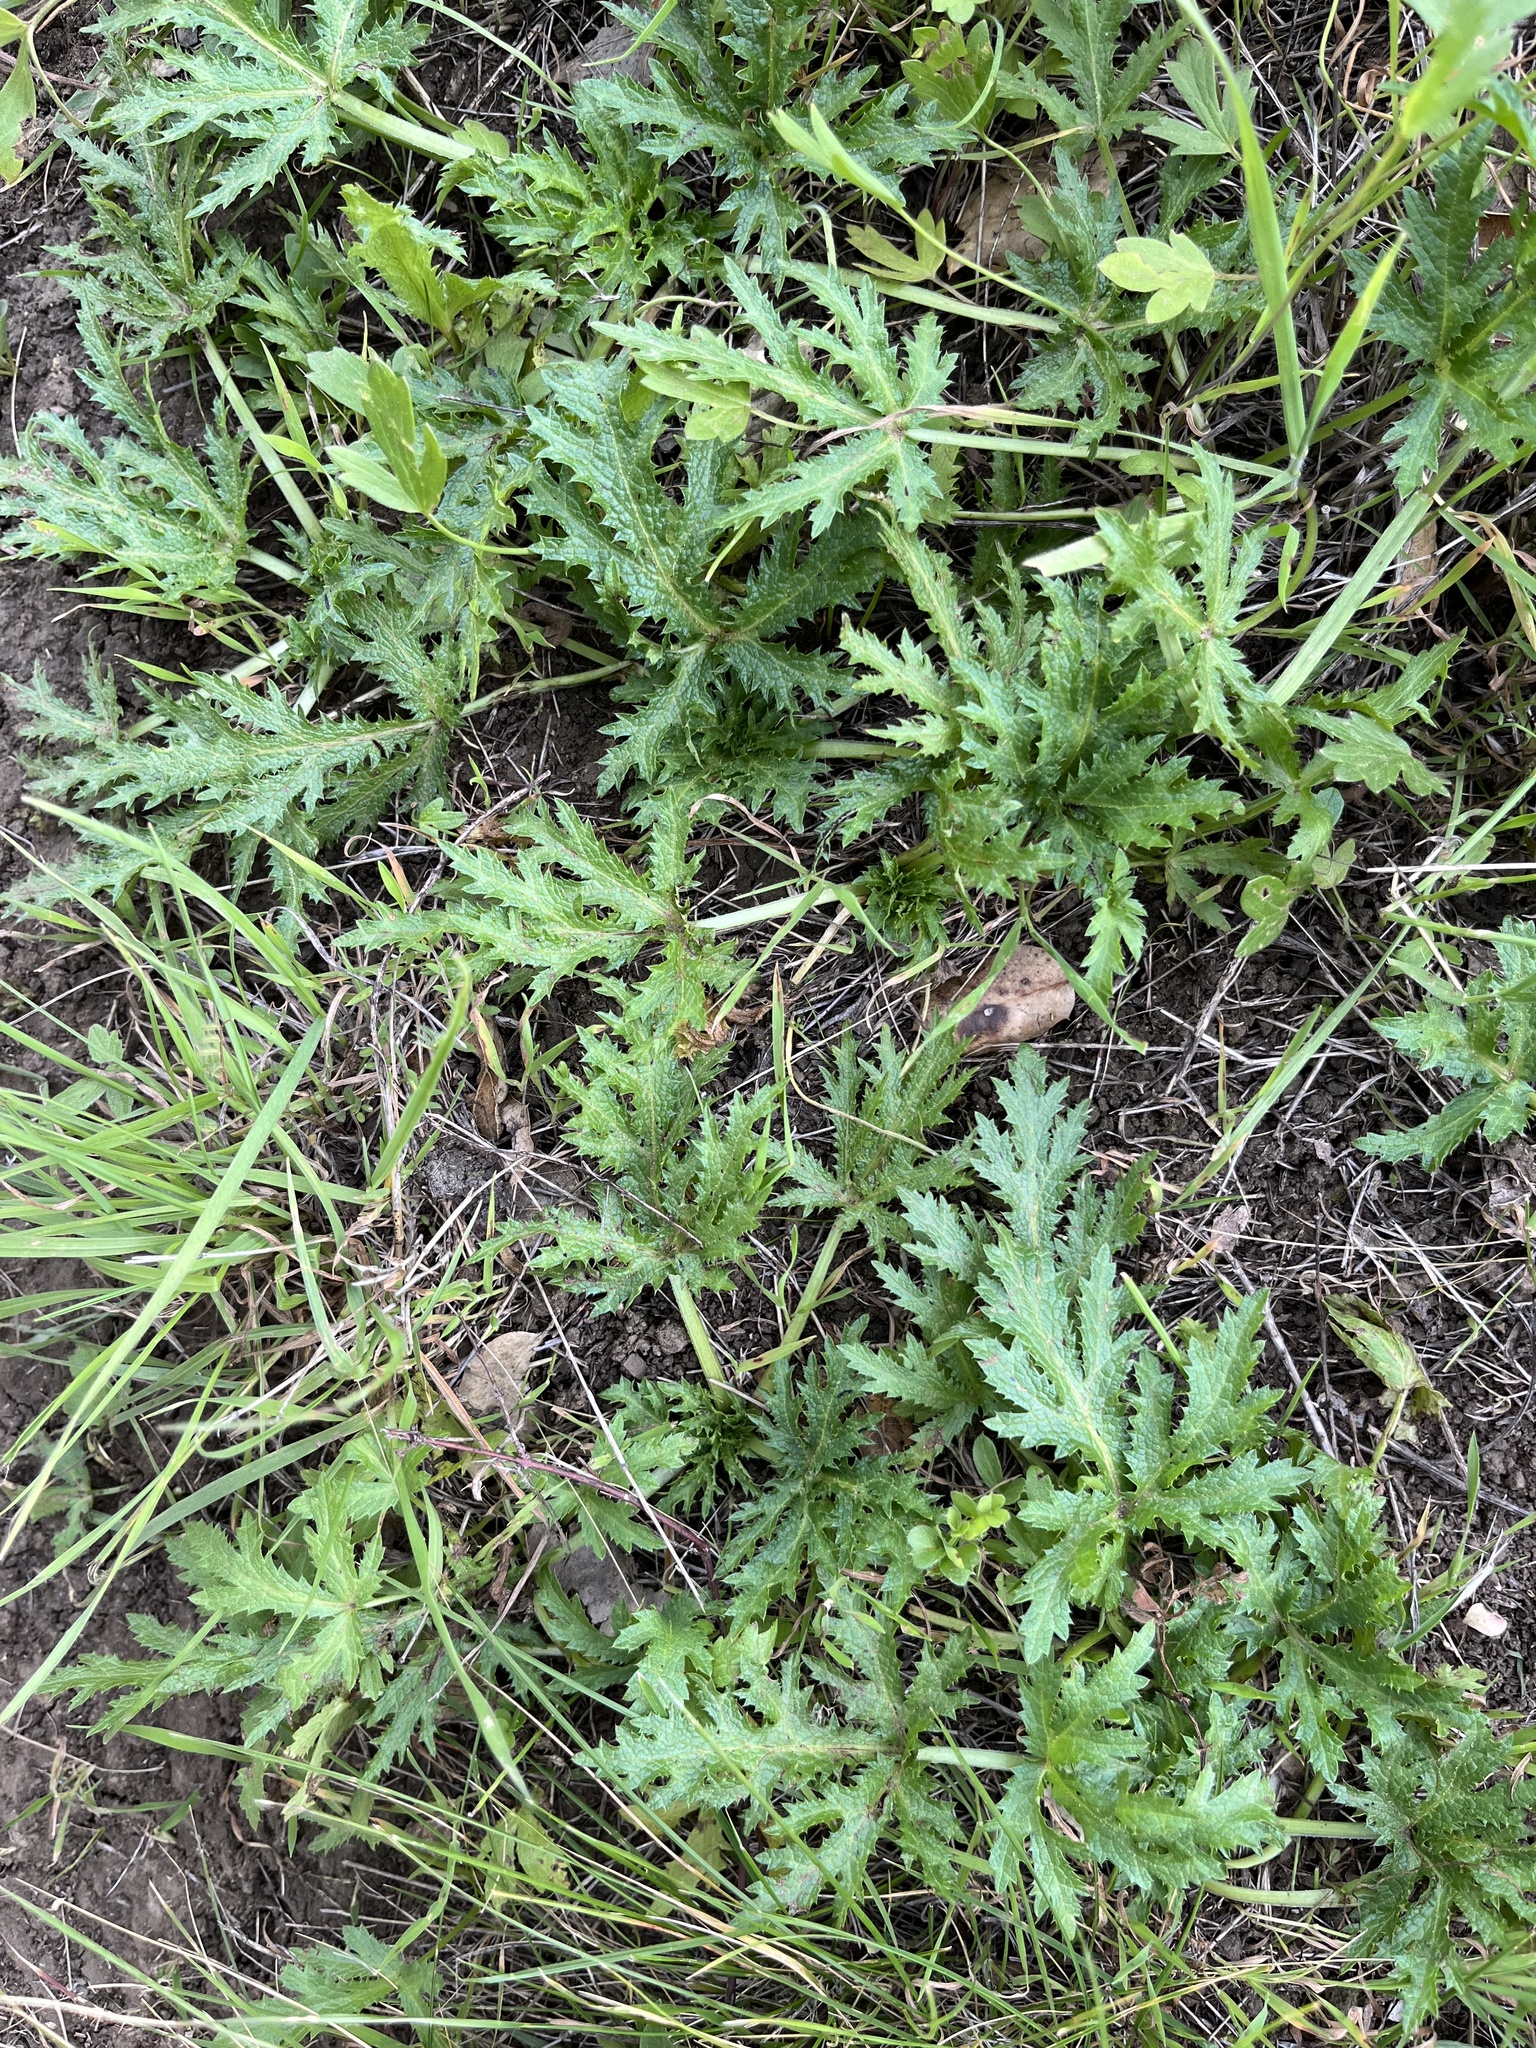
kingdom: Plantae
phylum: Tracheophyta
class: Magnoliopsida
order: Apiales
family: Apiaceae
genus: Sanicula
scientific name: Sanicula arguta
